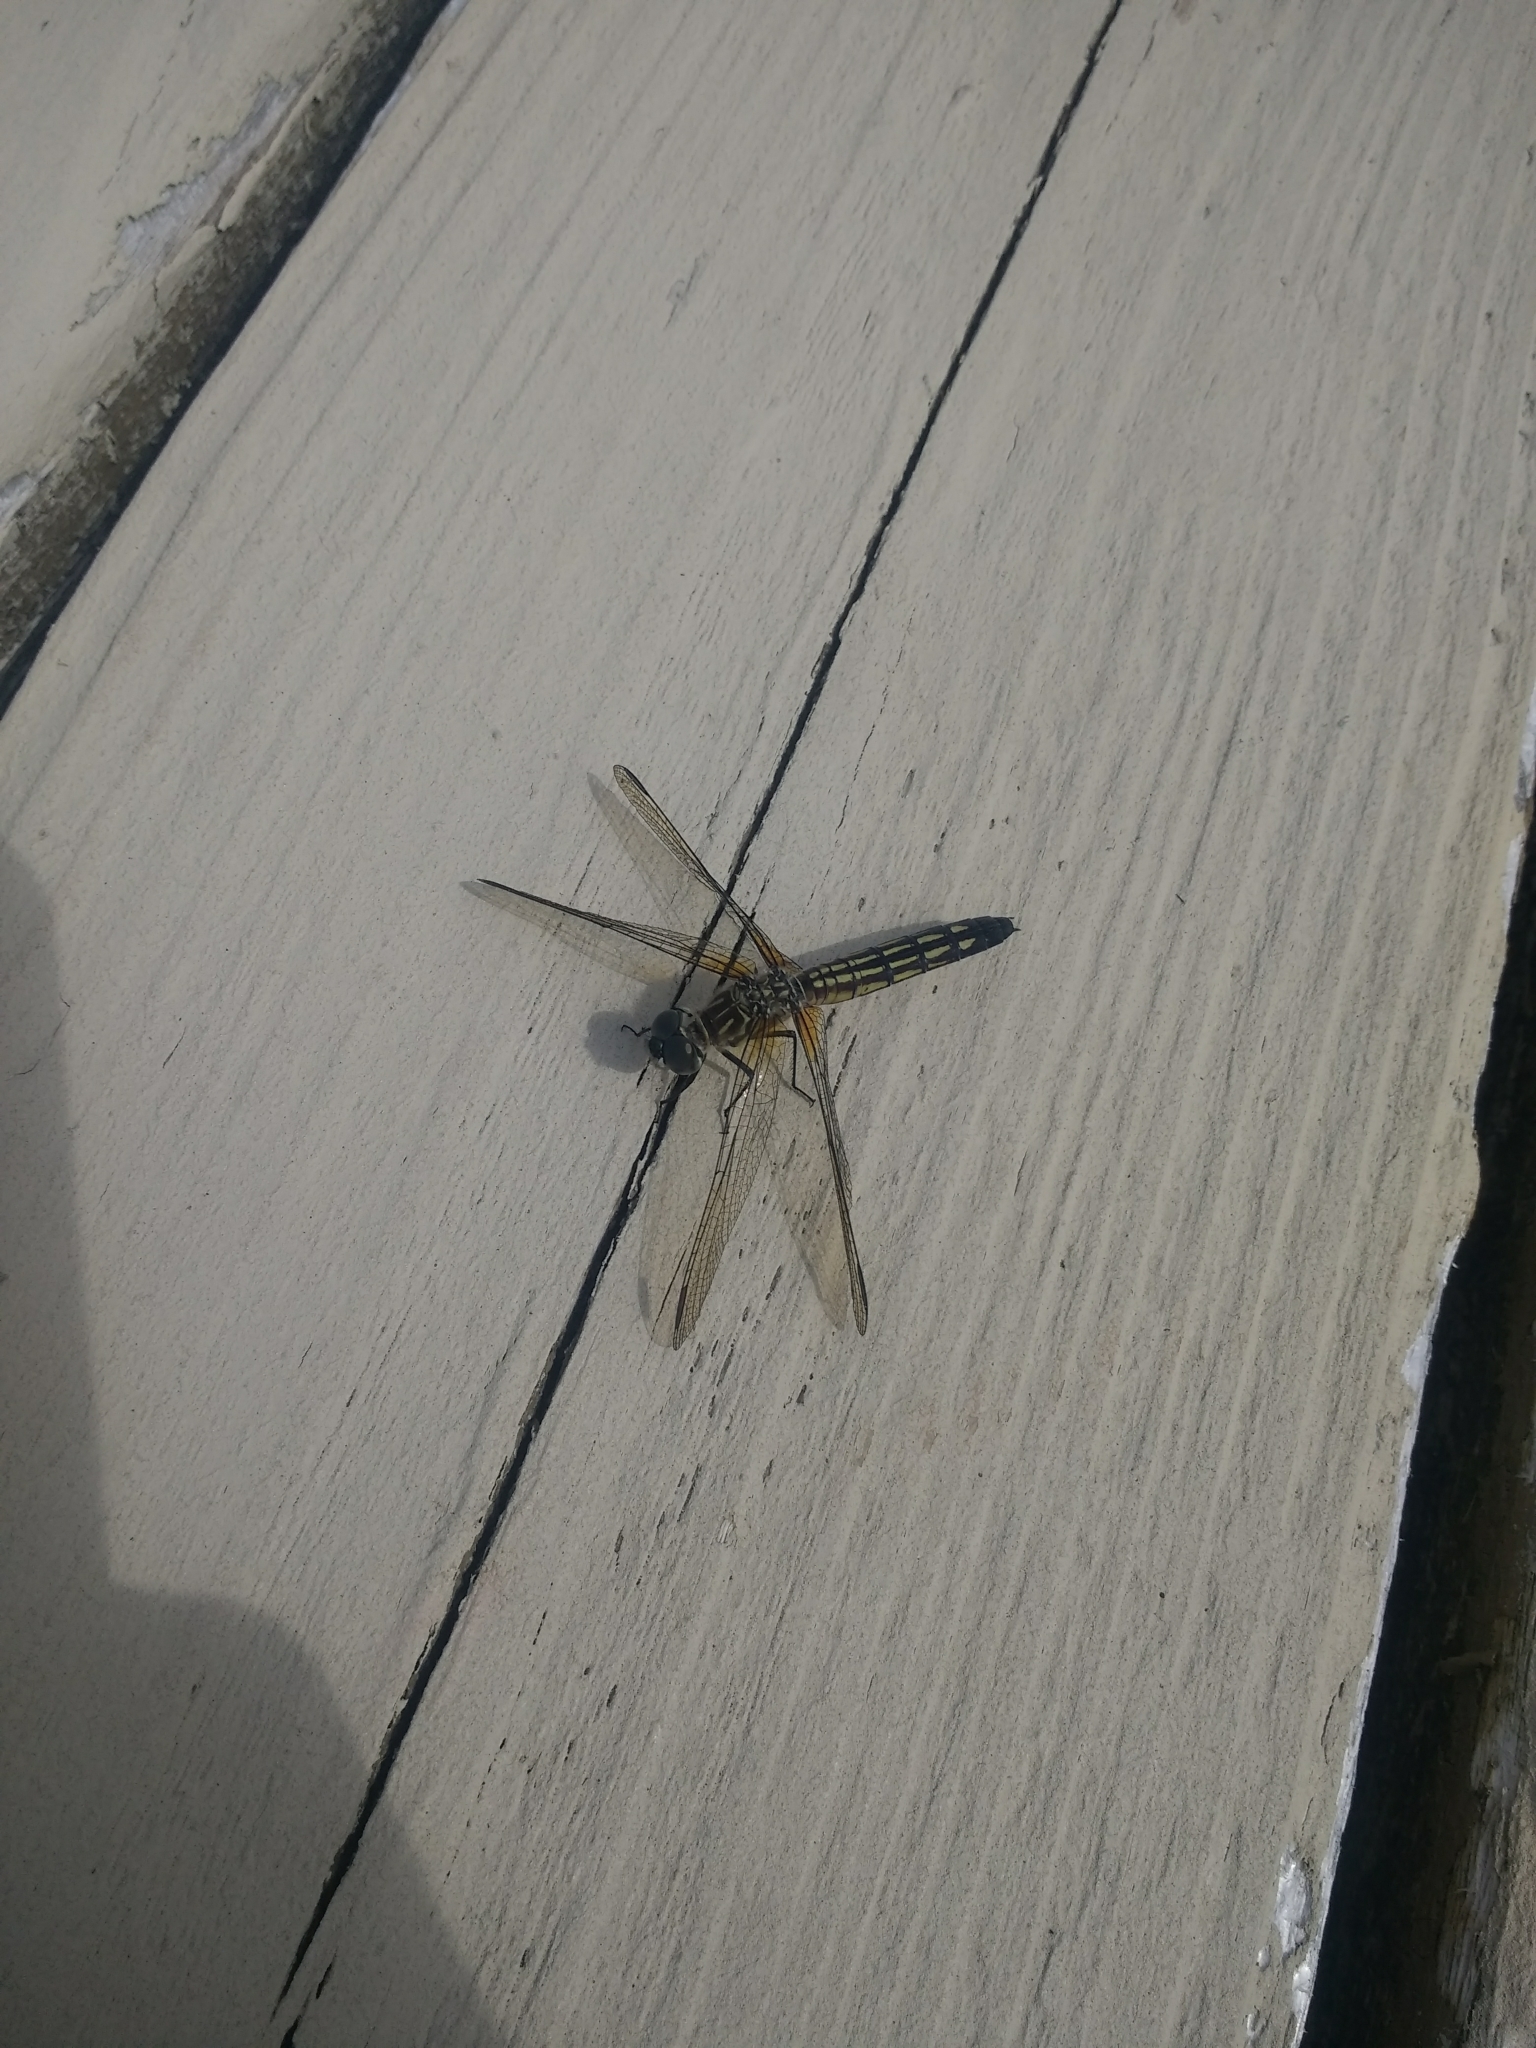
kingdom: Animalia
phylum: Arthropoda
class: Insecta
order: Odonata
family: Libellulidae
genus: Pachydiplax
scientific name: Pachydiplax longipennis
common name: Blue dasher
